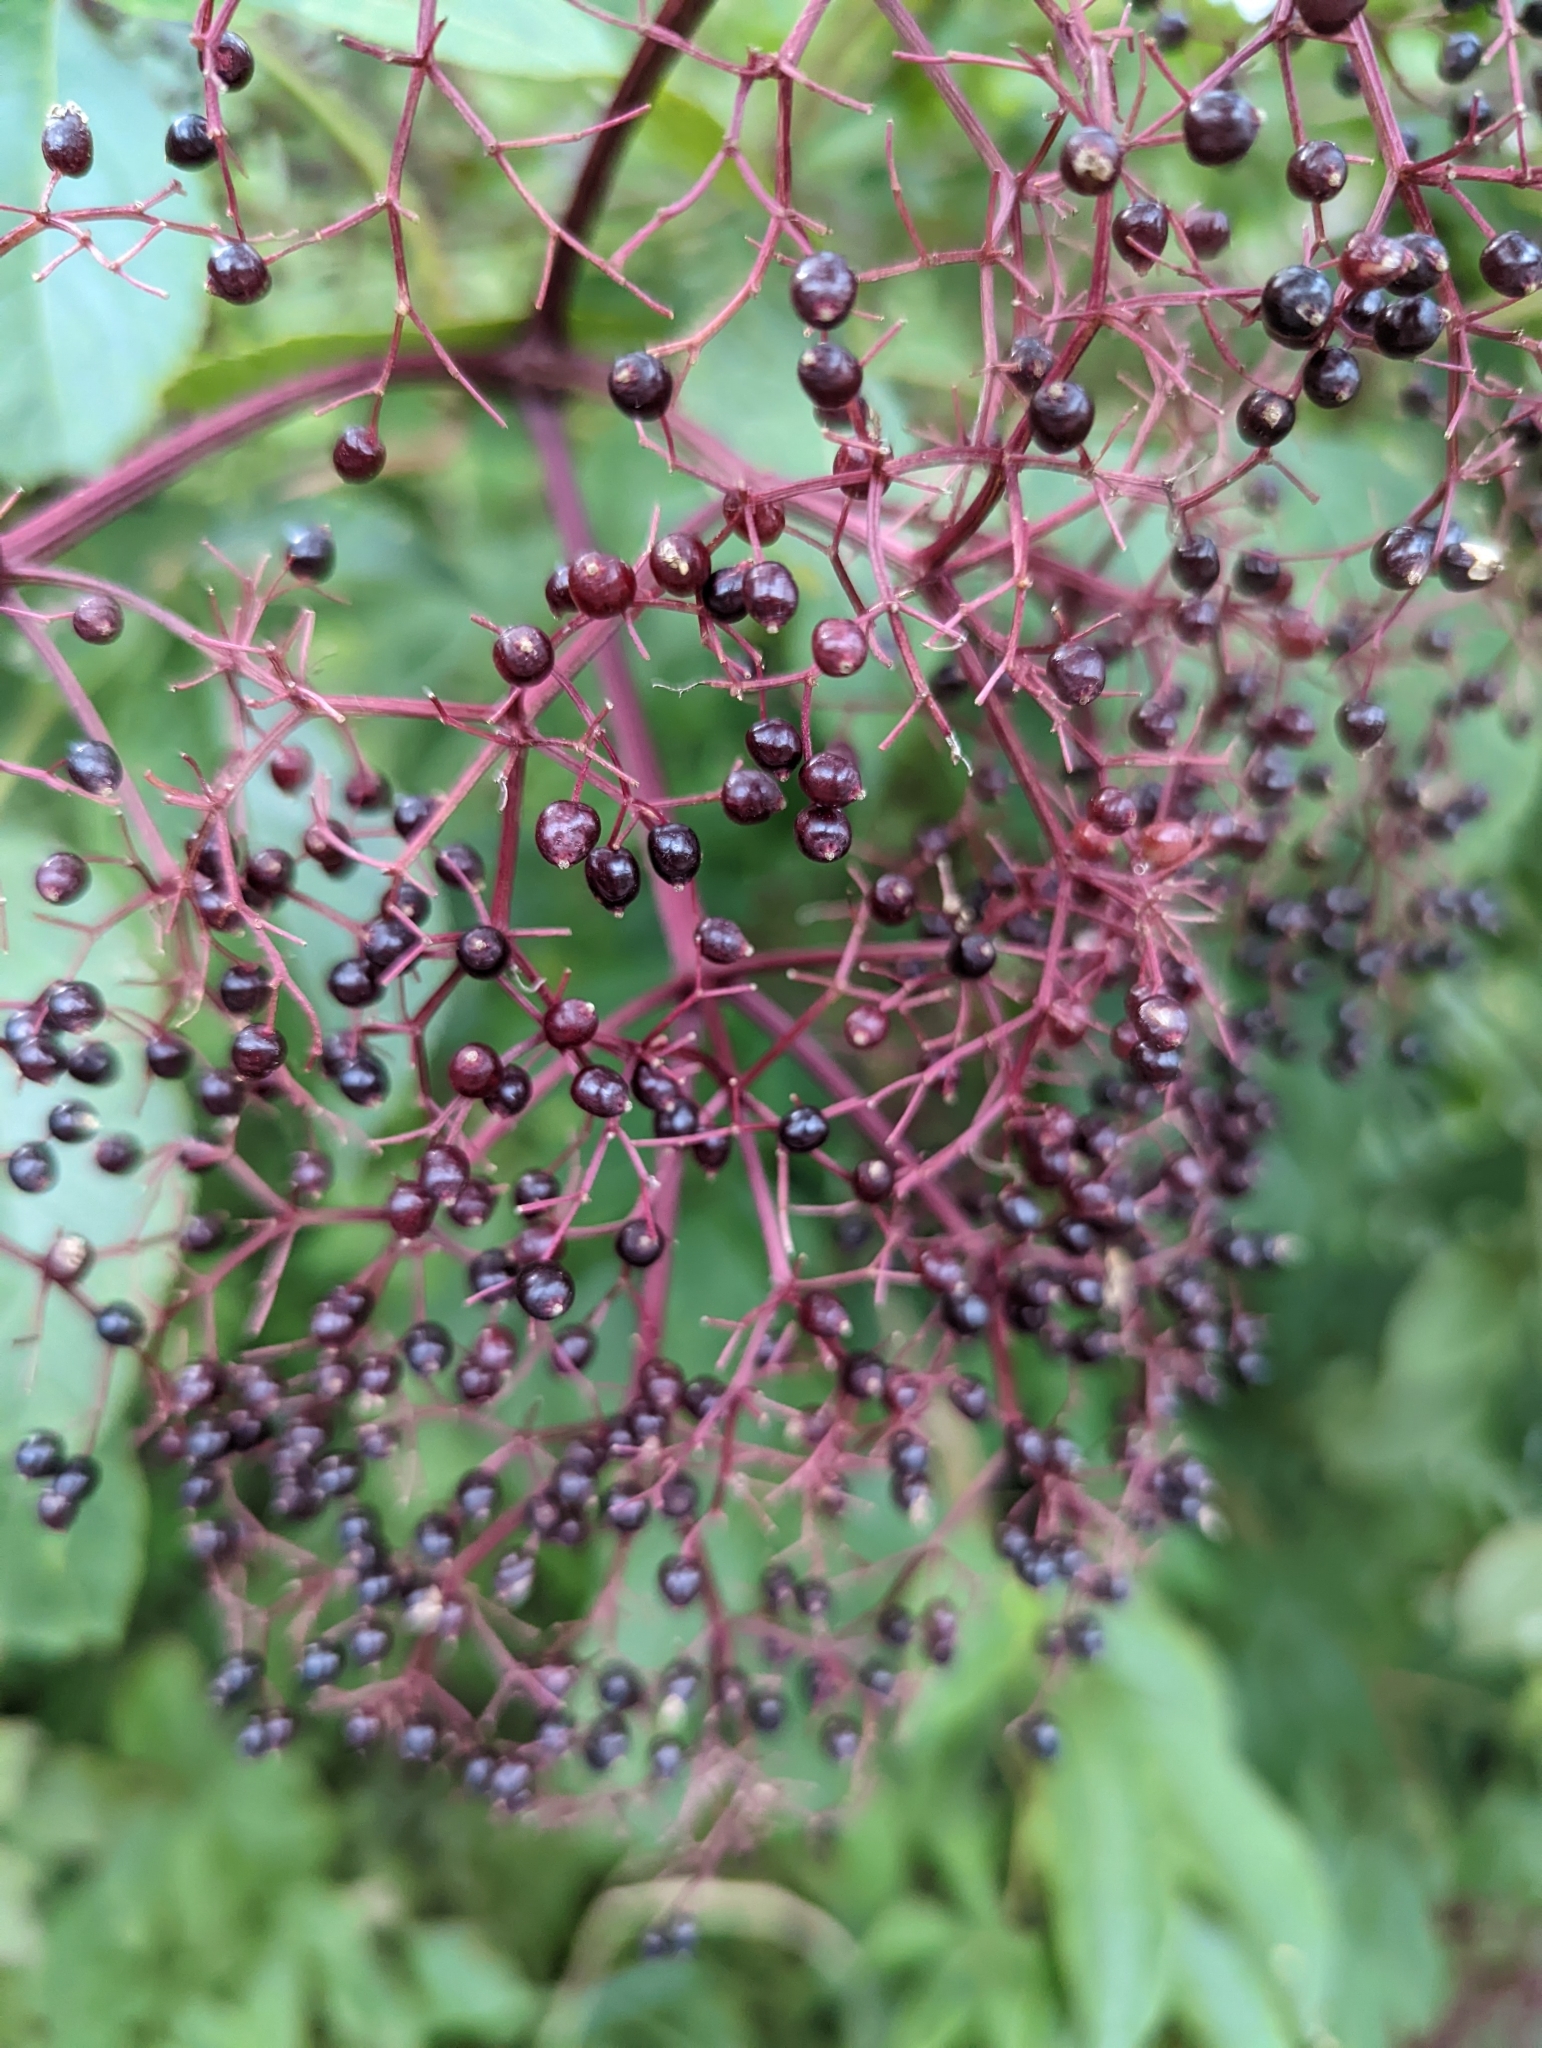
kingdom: Plantae
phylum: Tracheophyta
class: Magnoliopsida
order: Dipsacales
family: Viburnaceae
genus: Sambucus
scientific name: Sambucus canadensis
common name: American elder
